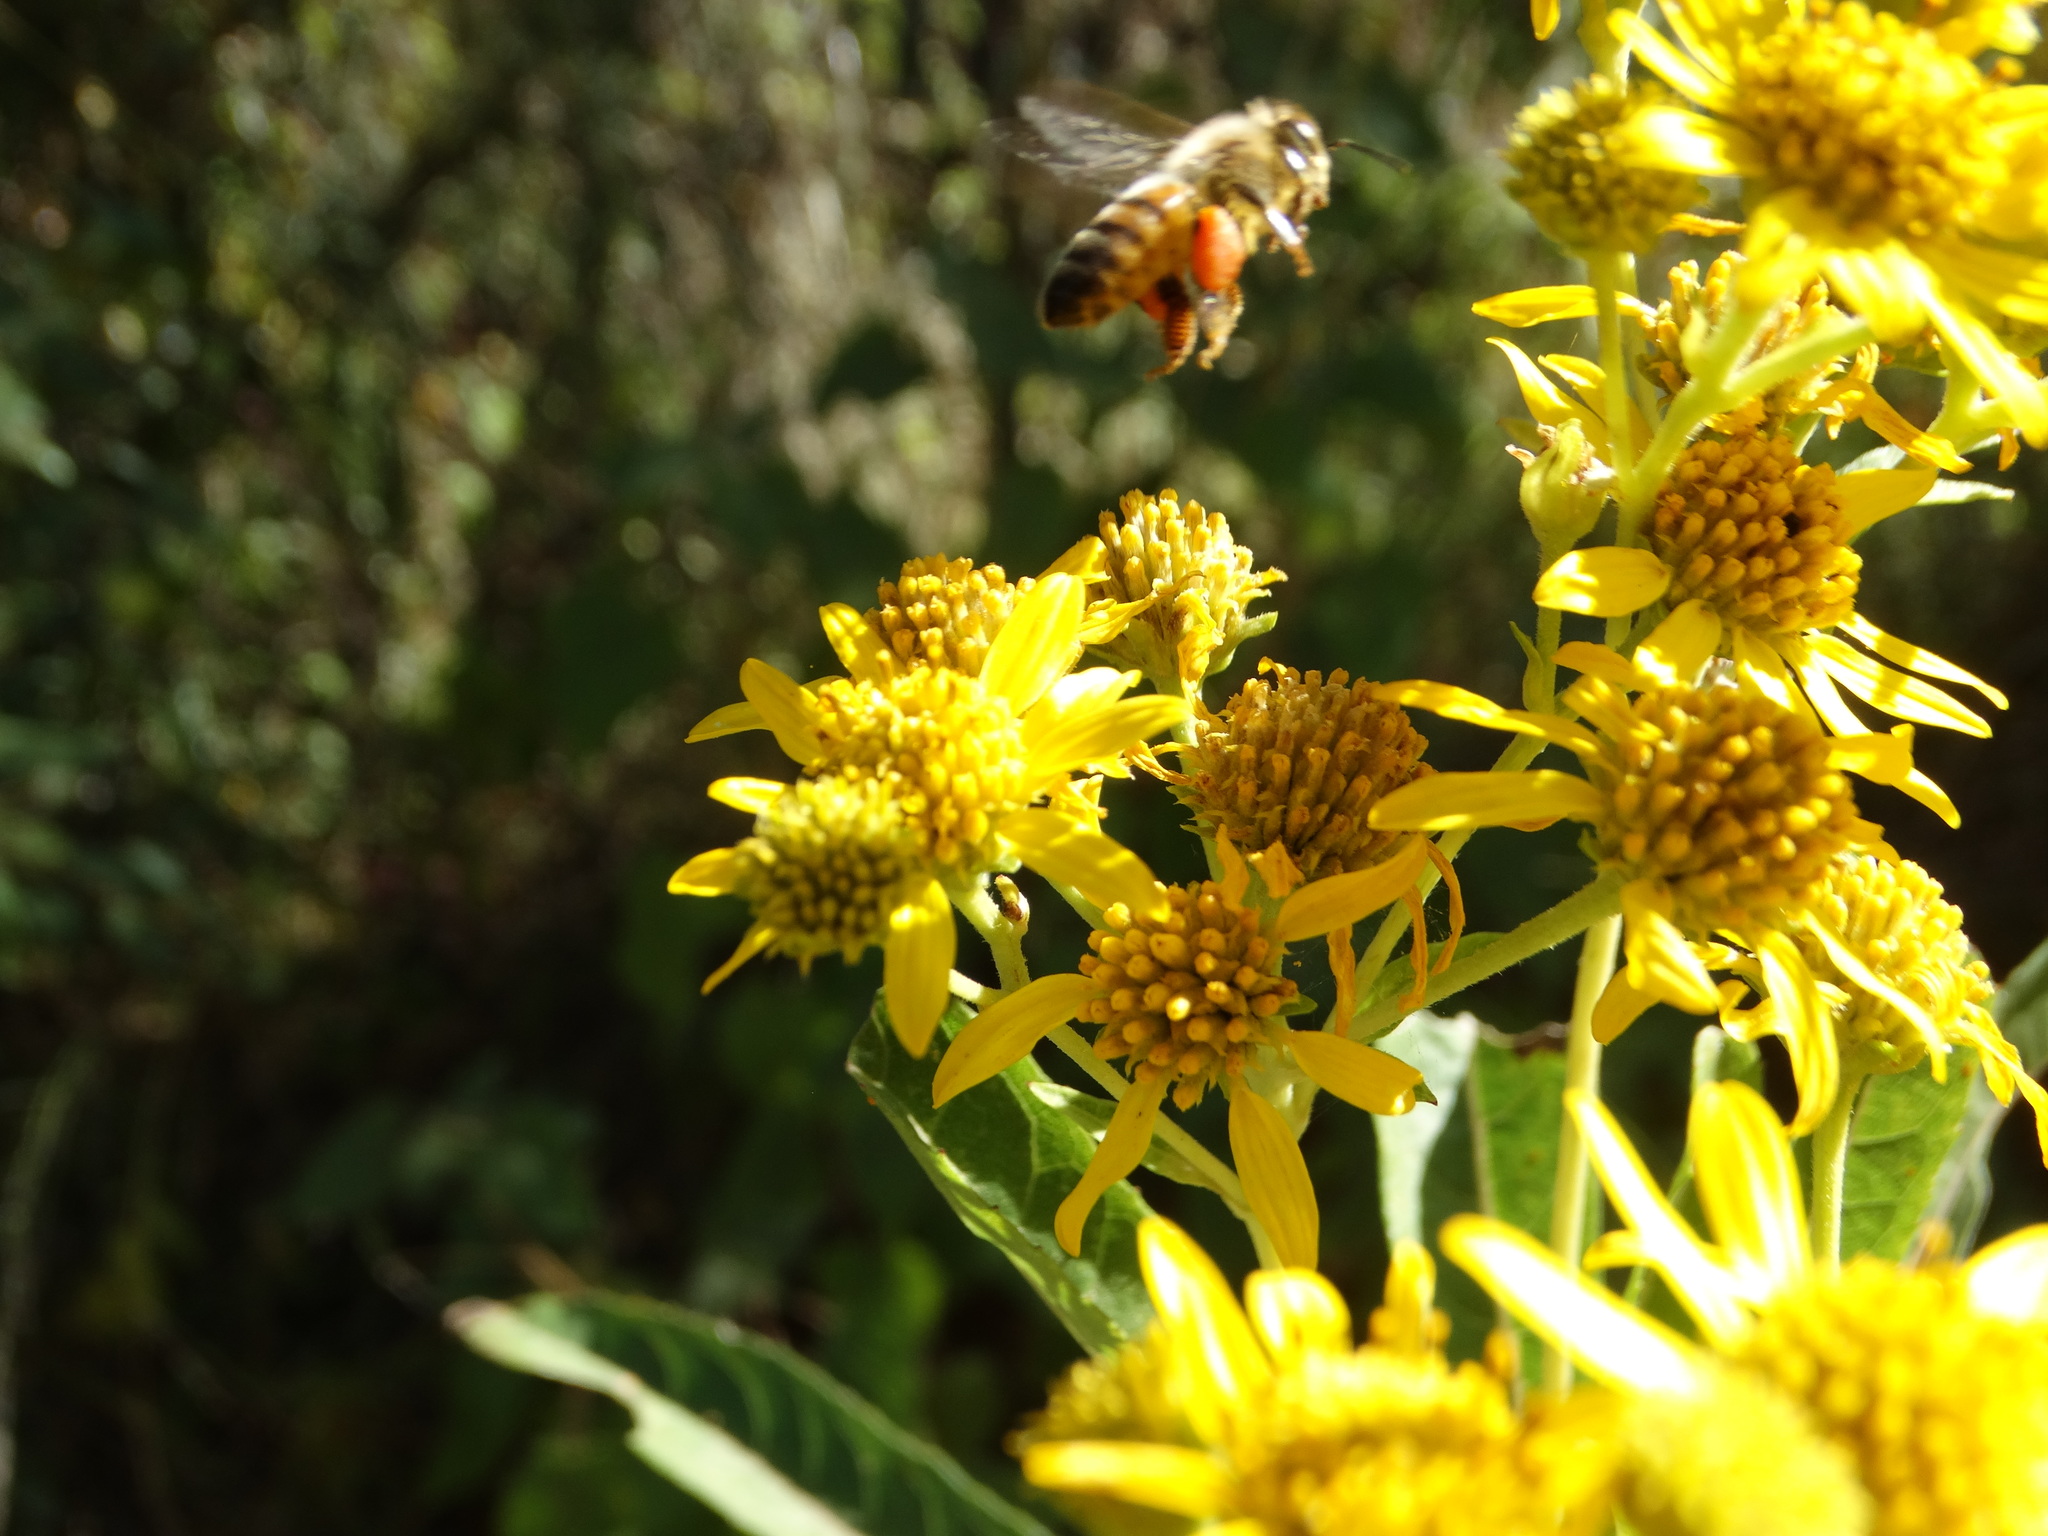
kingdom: Animalia
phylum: Arthropoda
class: Insecta
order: Hymenoptera
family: Apidae
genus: Apis
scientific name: Apis mellifera
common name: Honey bee
